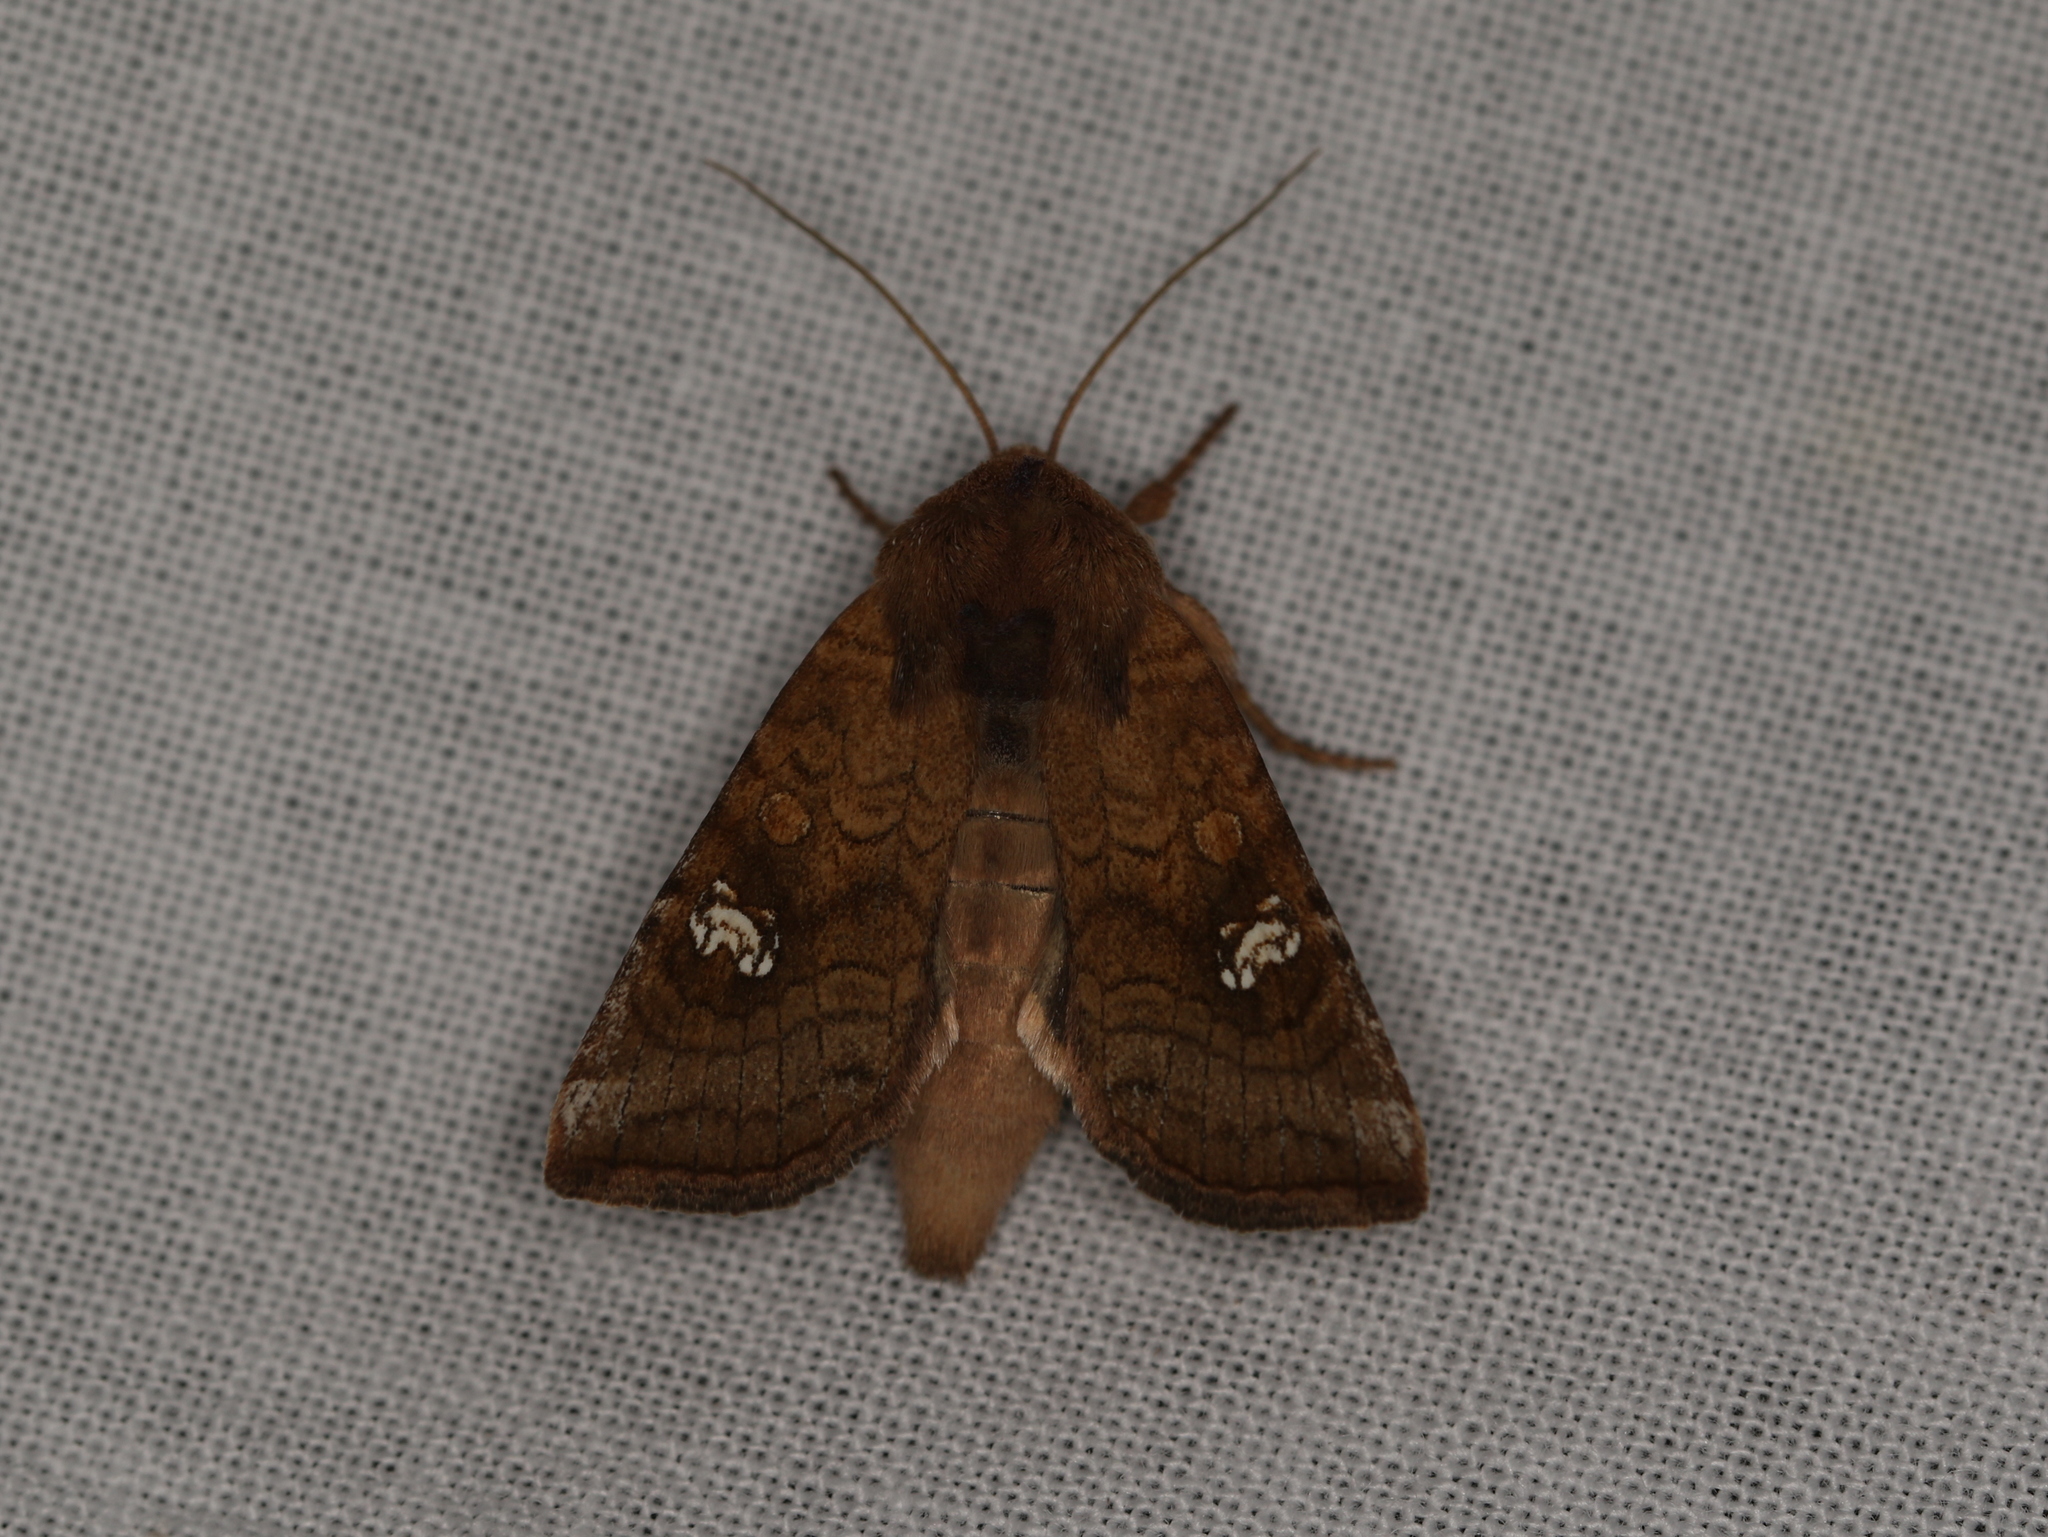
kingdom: Animalia
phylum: Arthropoda
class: Insecta
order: Lepidoptera
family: Noctuidae
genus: Amphipoea
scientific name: Amphipoea
